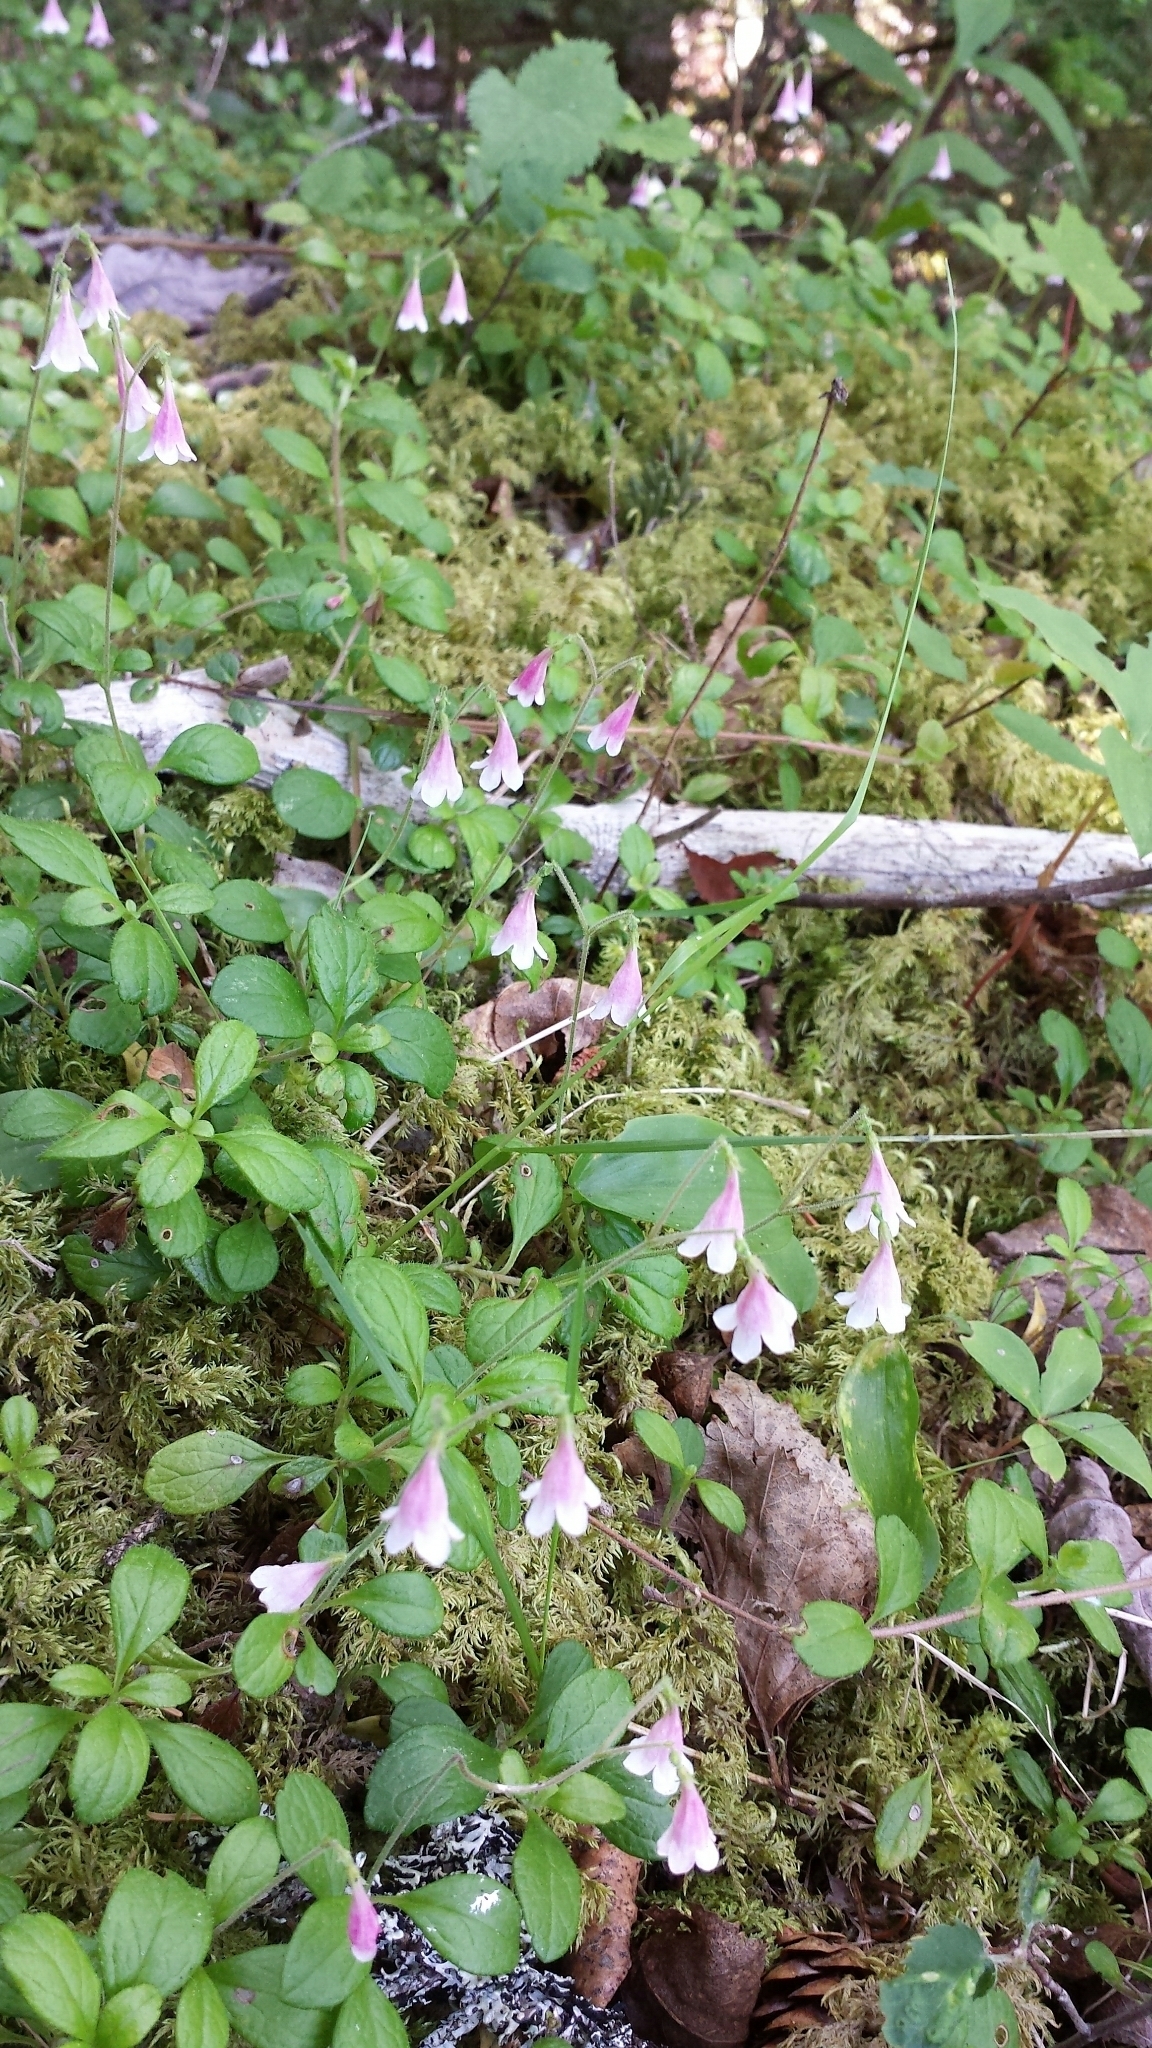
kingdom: Plantae
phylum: Tracheophyta
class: Magnoliopsida
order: Dipsacales
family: Caprifoliaceae
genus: Linnaea
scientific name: Linnaea borealis
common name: Twinflower
